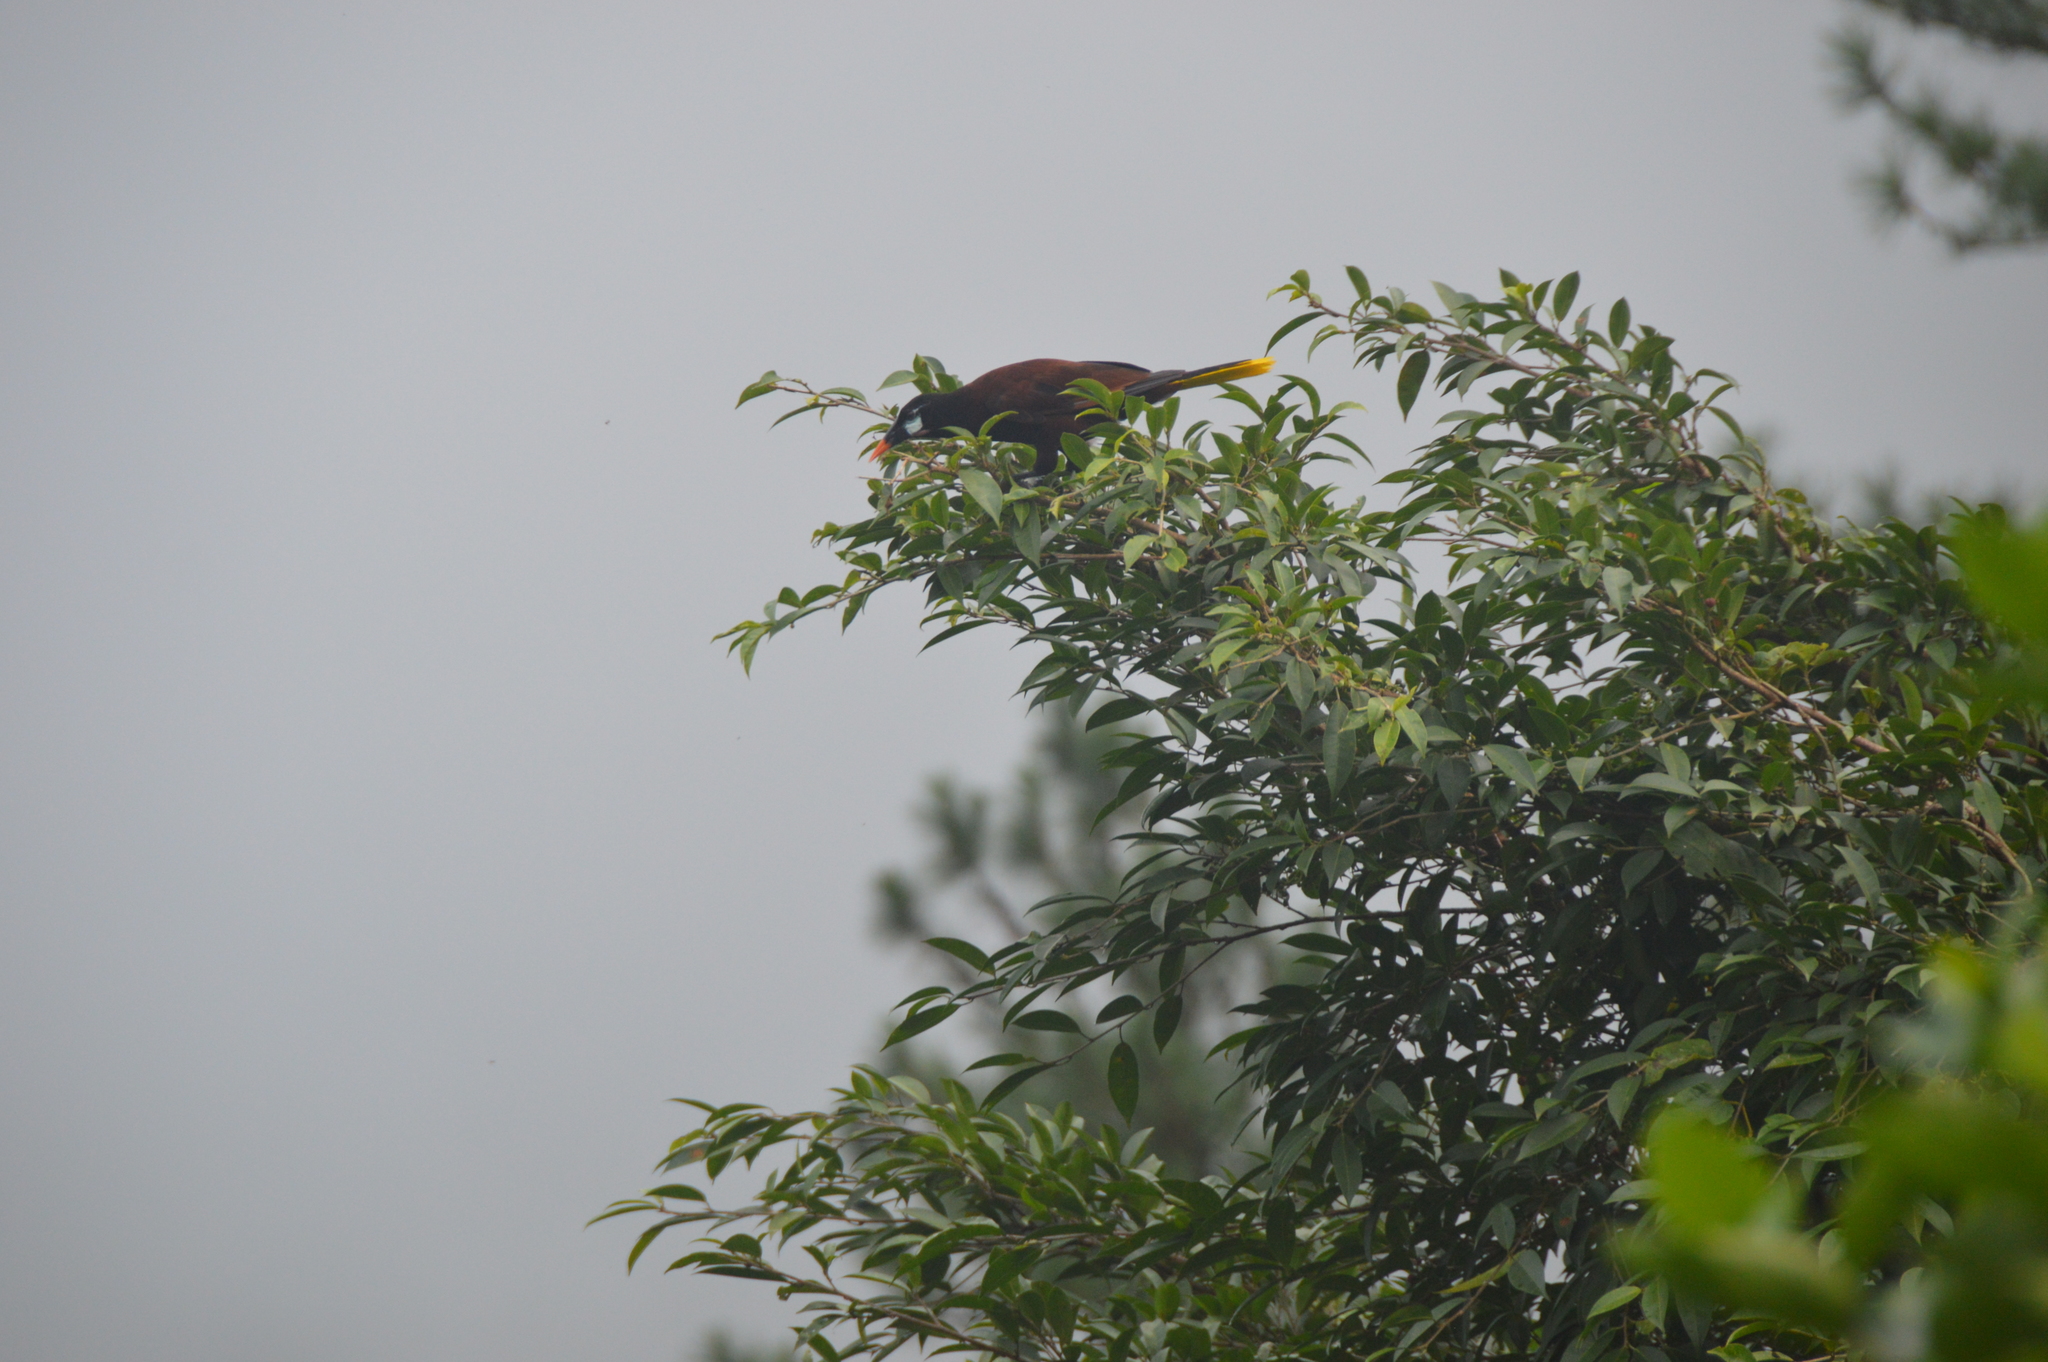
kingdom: Animalia
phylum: Chordata
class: Aves
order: Passeriformes
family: Icteridae
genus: Psarocolius
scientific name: Psarocolius montezuma
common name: Montezuma oropendola
